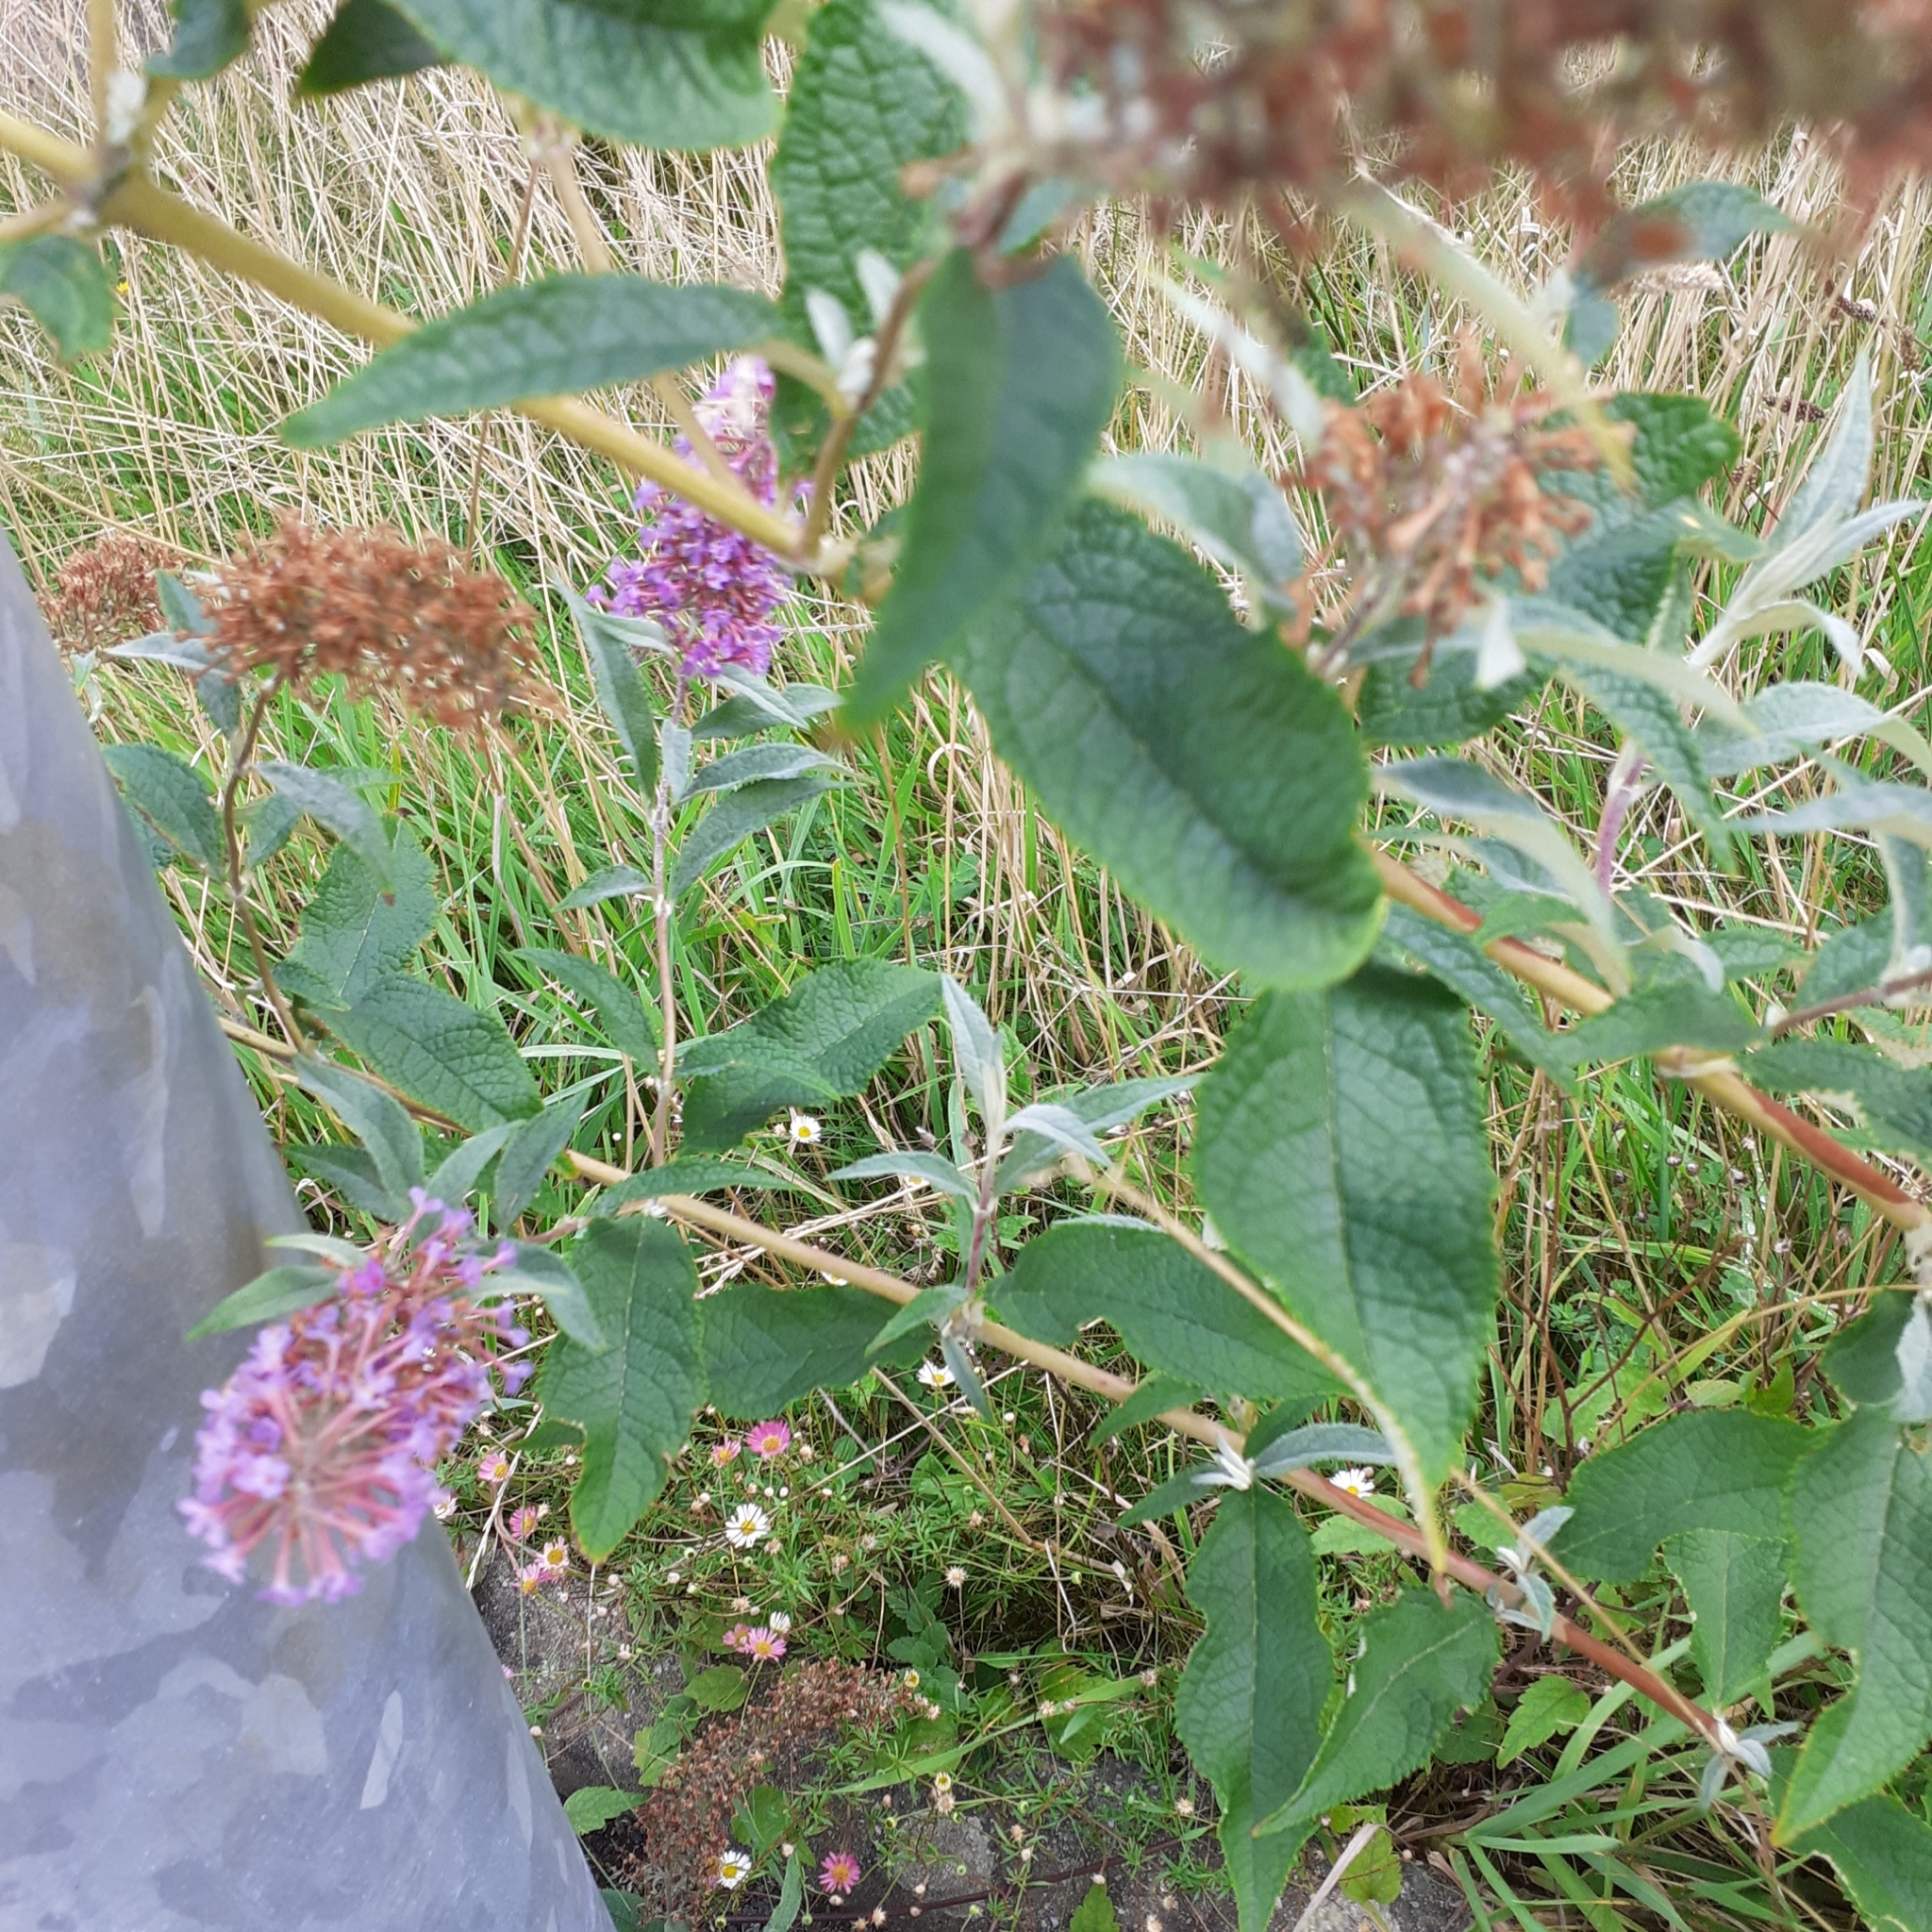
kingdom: Plantae
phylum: Tracheophyta
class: Magnoliopsida
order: Lamiales
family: Scrophulariaceae
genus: Buddleja
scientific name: Buddleja davidii
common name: Butterfly-bush
